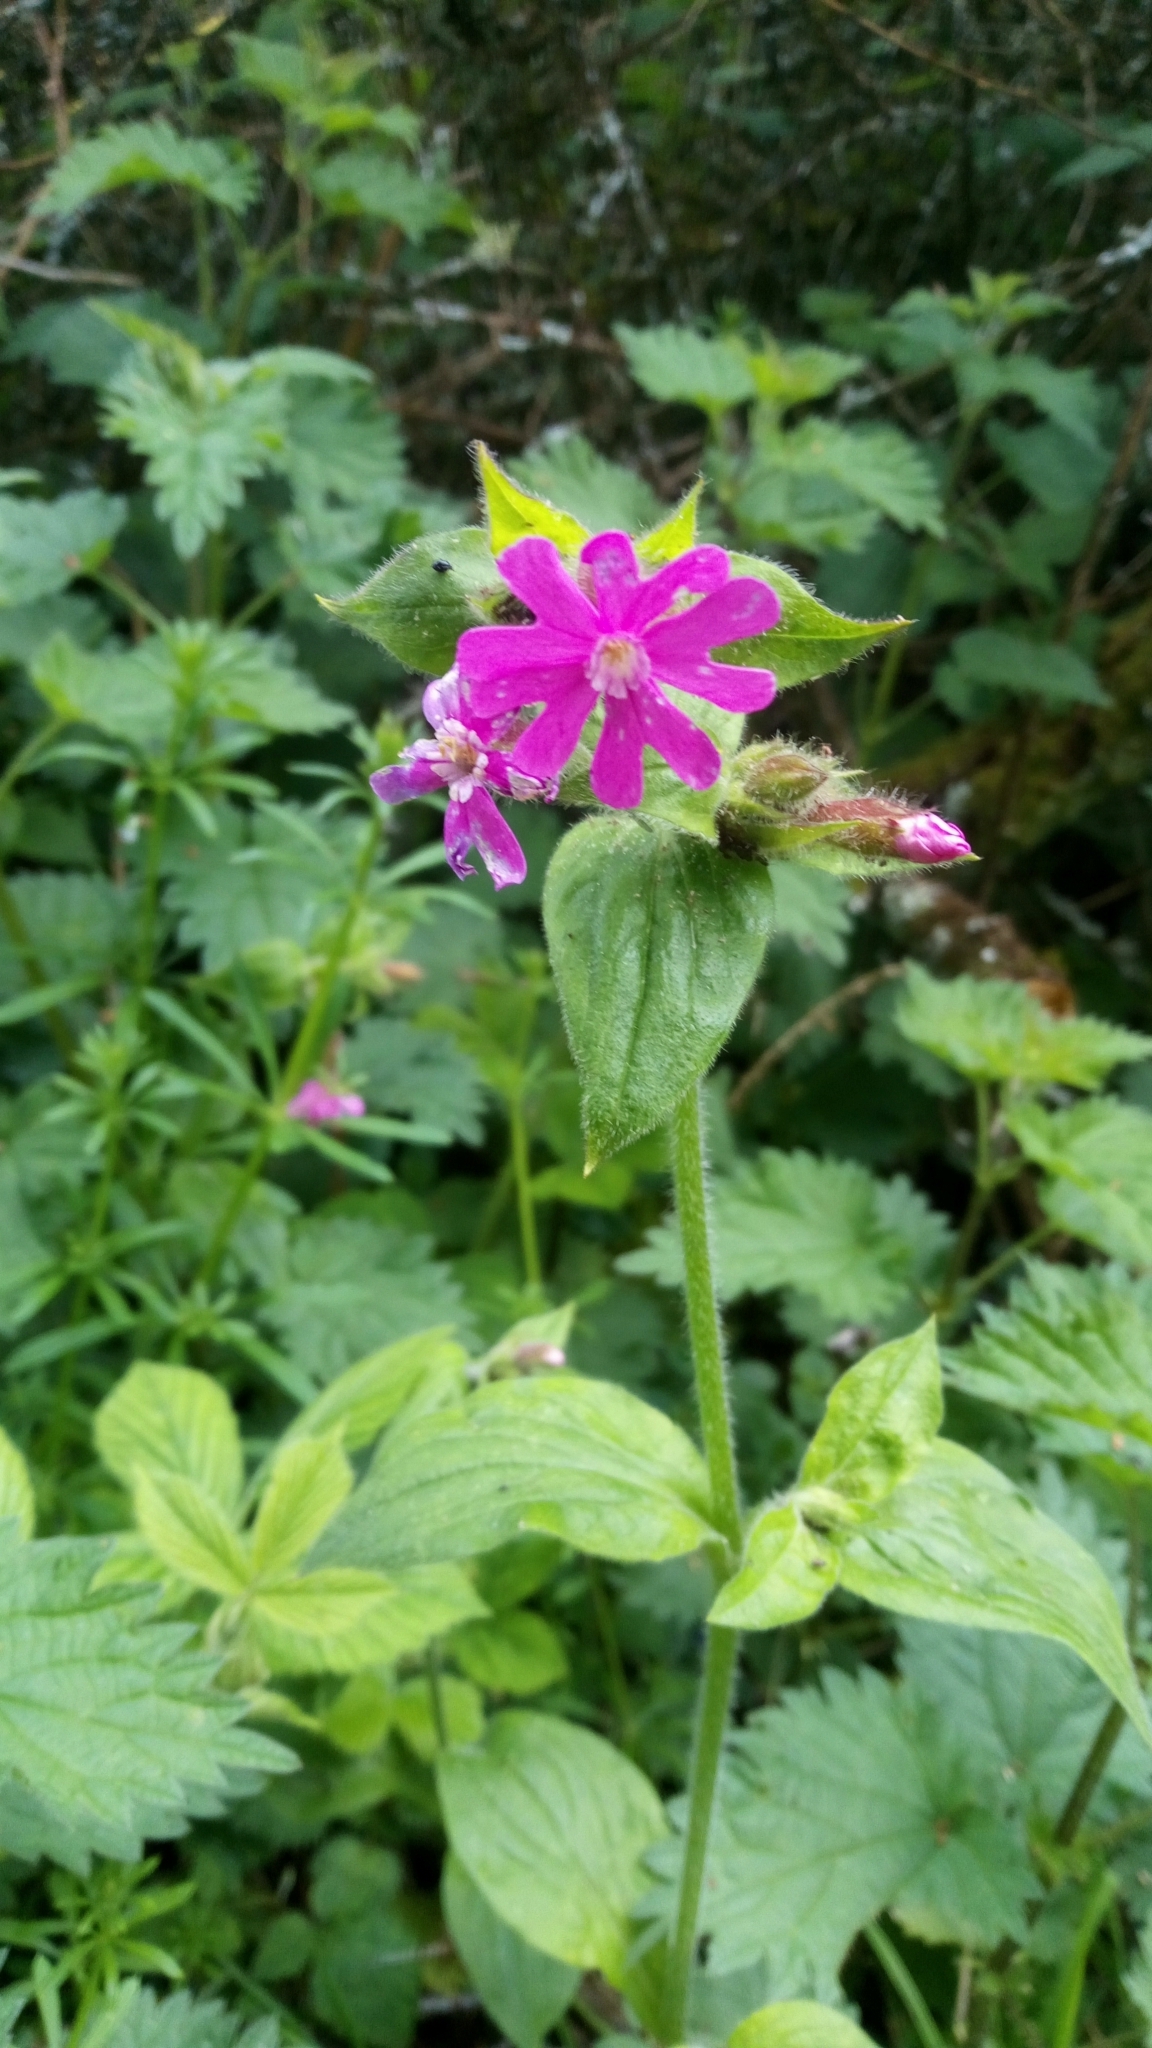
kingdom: Plantae
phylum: Tracheophyta
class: Magnoliopsida
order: Caryophyllales
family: Caryophyllaceae
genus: Silene
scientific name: Silene dioica
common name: Red campion
